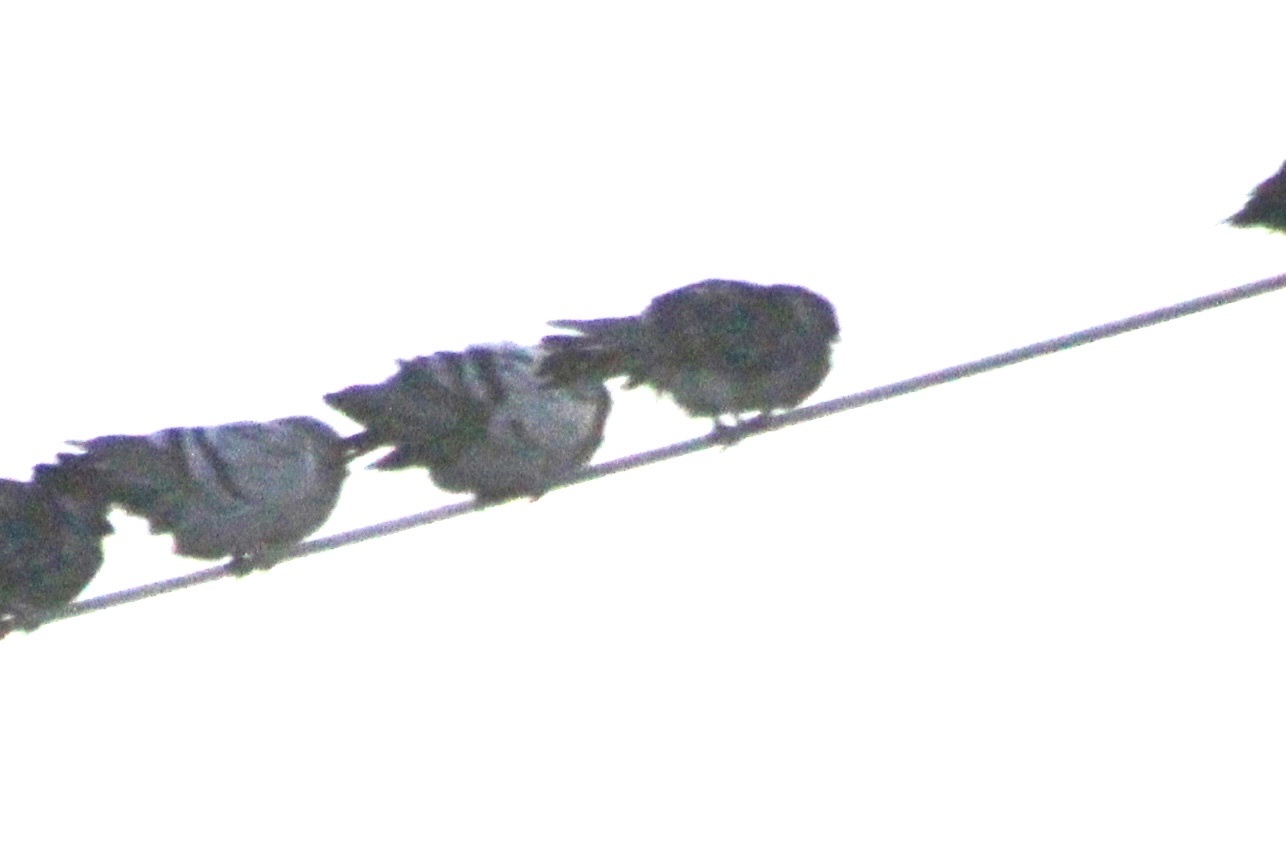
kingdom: Animalia
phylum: Chordata
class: Aves
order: Columbiformes
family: Columbidae
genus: Columba
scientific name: Columba livia
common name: Rock pigeon
